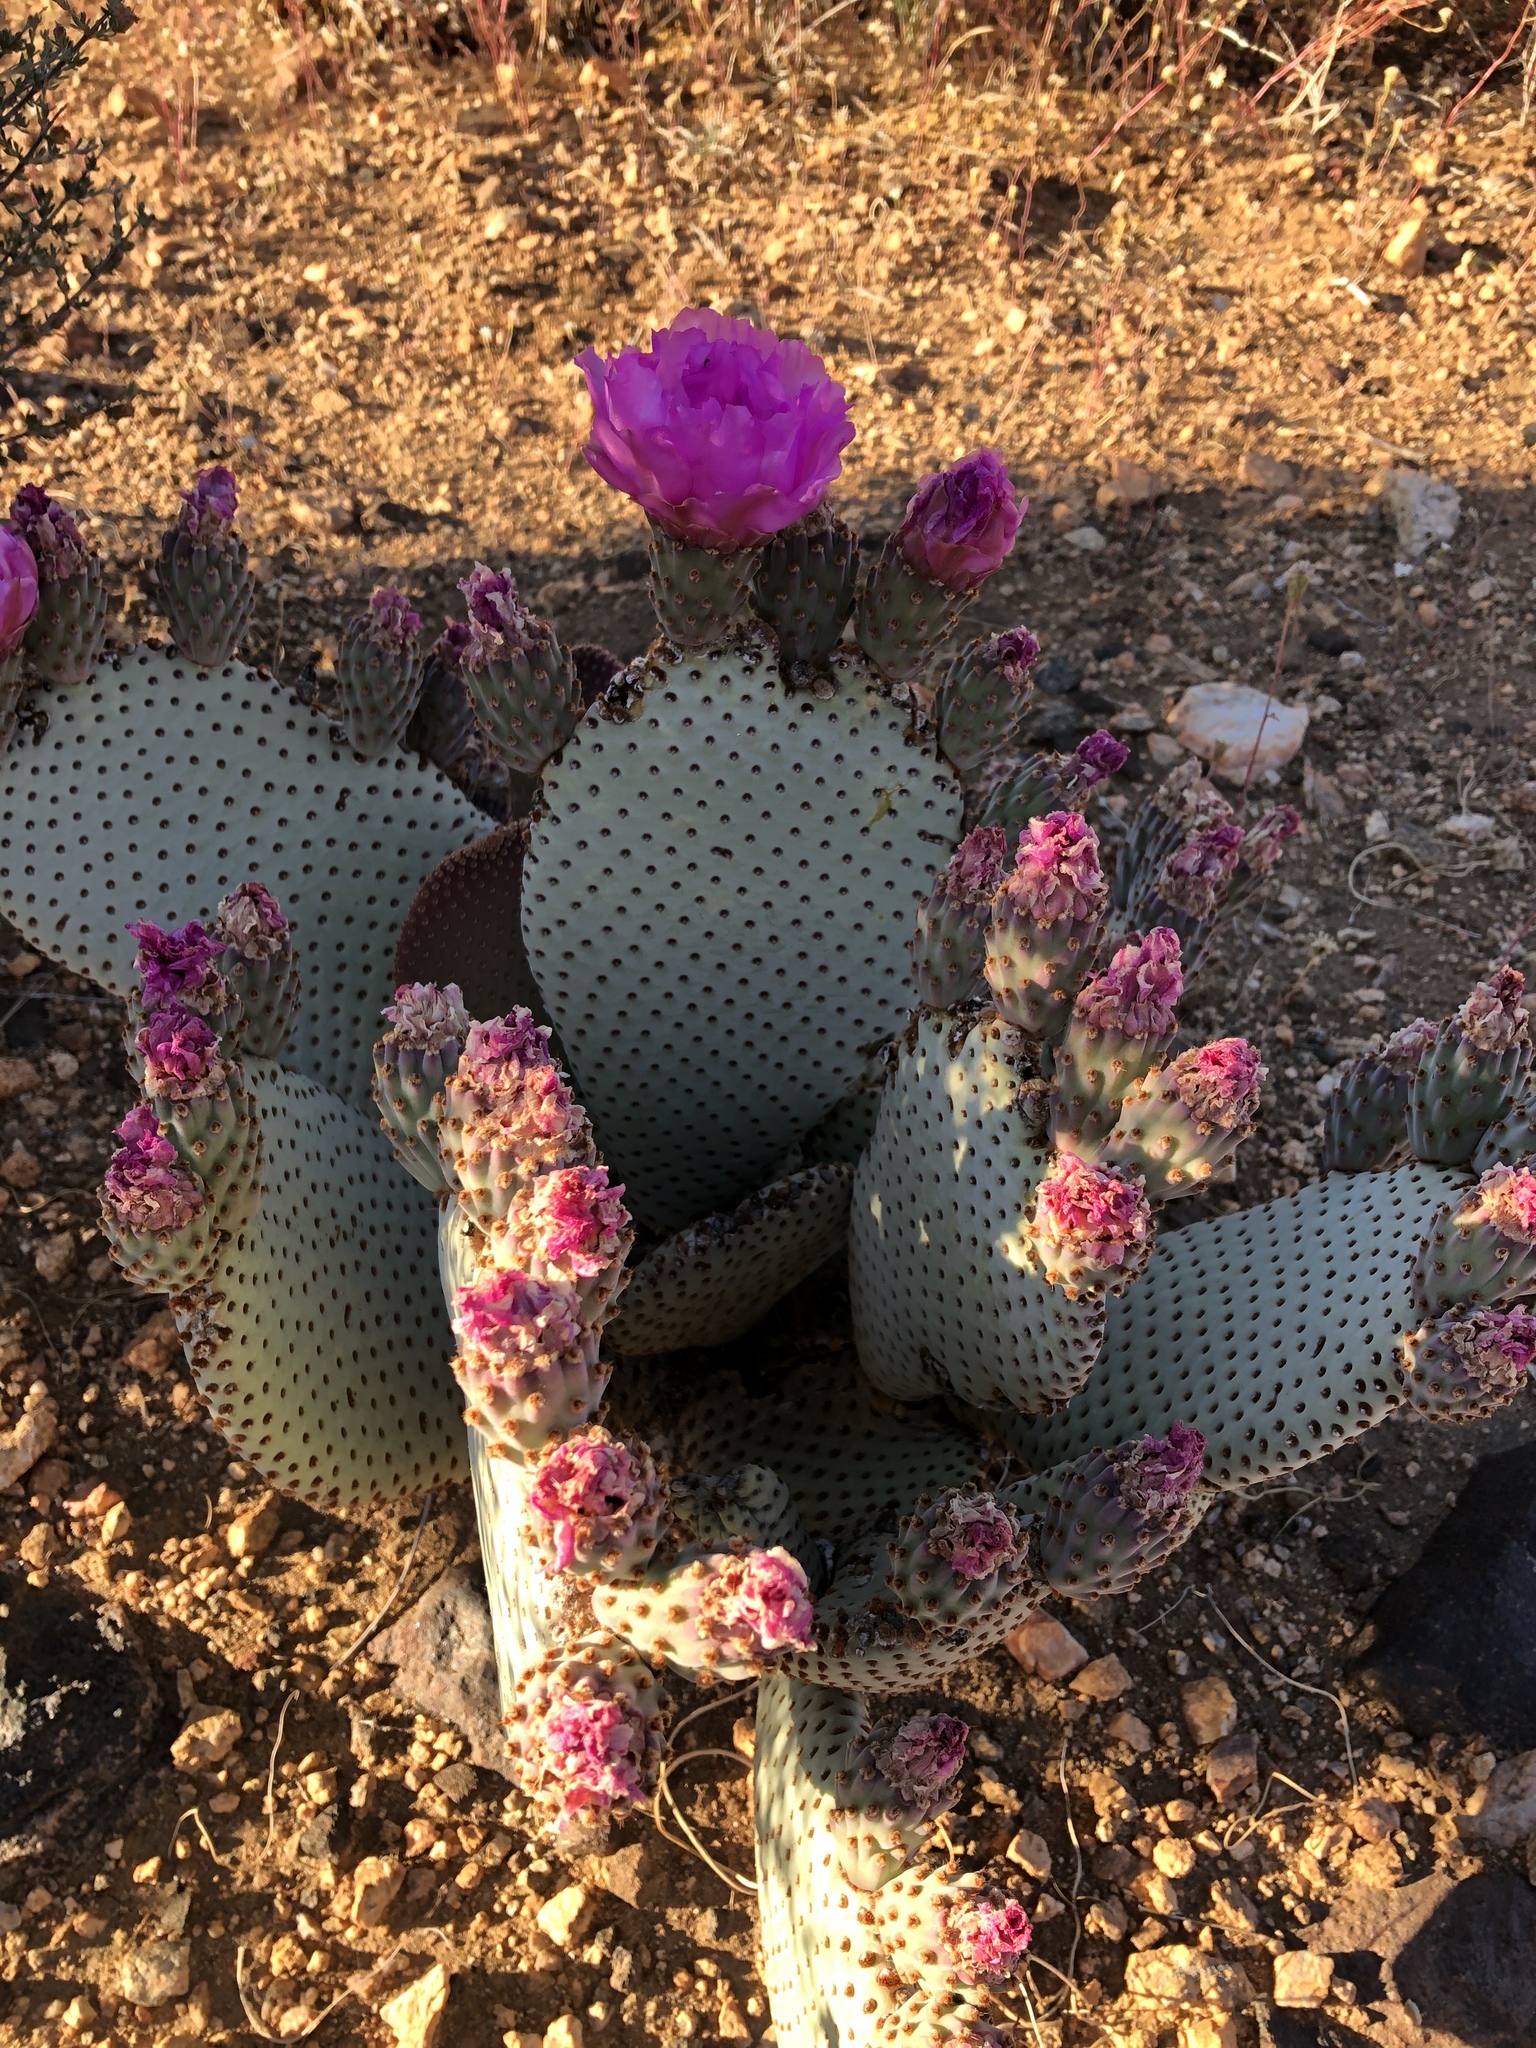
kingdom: Plantae
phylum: Tracheophyta
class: Magnoliopsida
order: Caryophyllales
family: Cactaceae
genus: Opuntia
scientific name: Opuntia basilaris
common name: Beavertail prickly-pear
